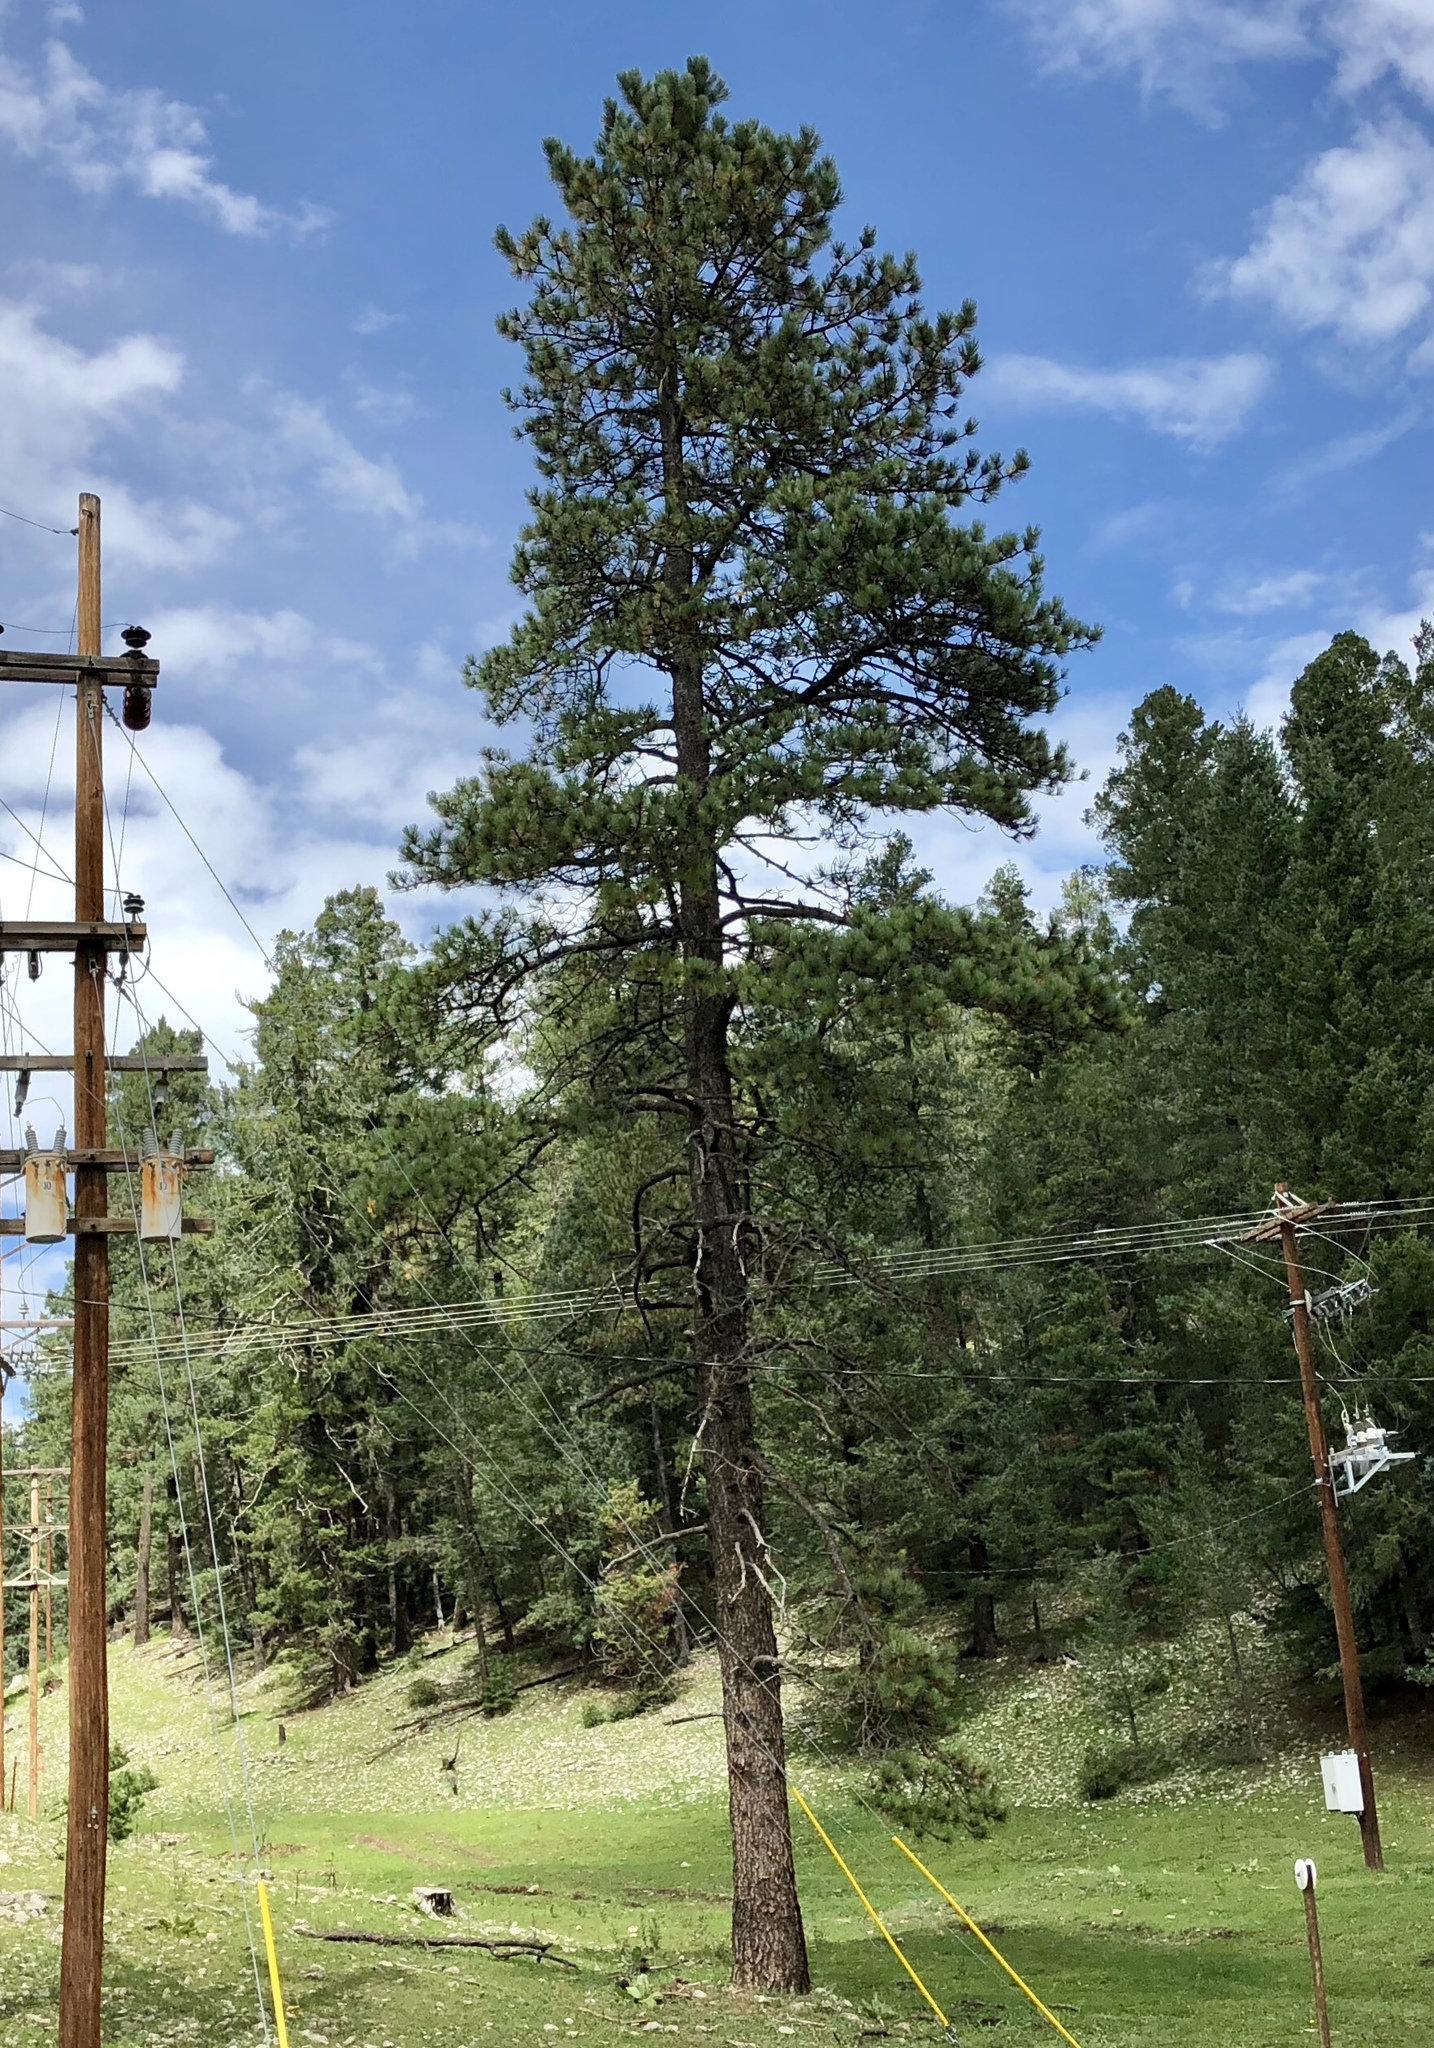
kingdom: Plantae
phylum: Tracheophyta
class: Pinopsida
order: Pinales
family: Pinaceae
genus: Pinus
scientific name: Pinus ponderosa
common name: Western yellow-pine
